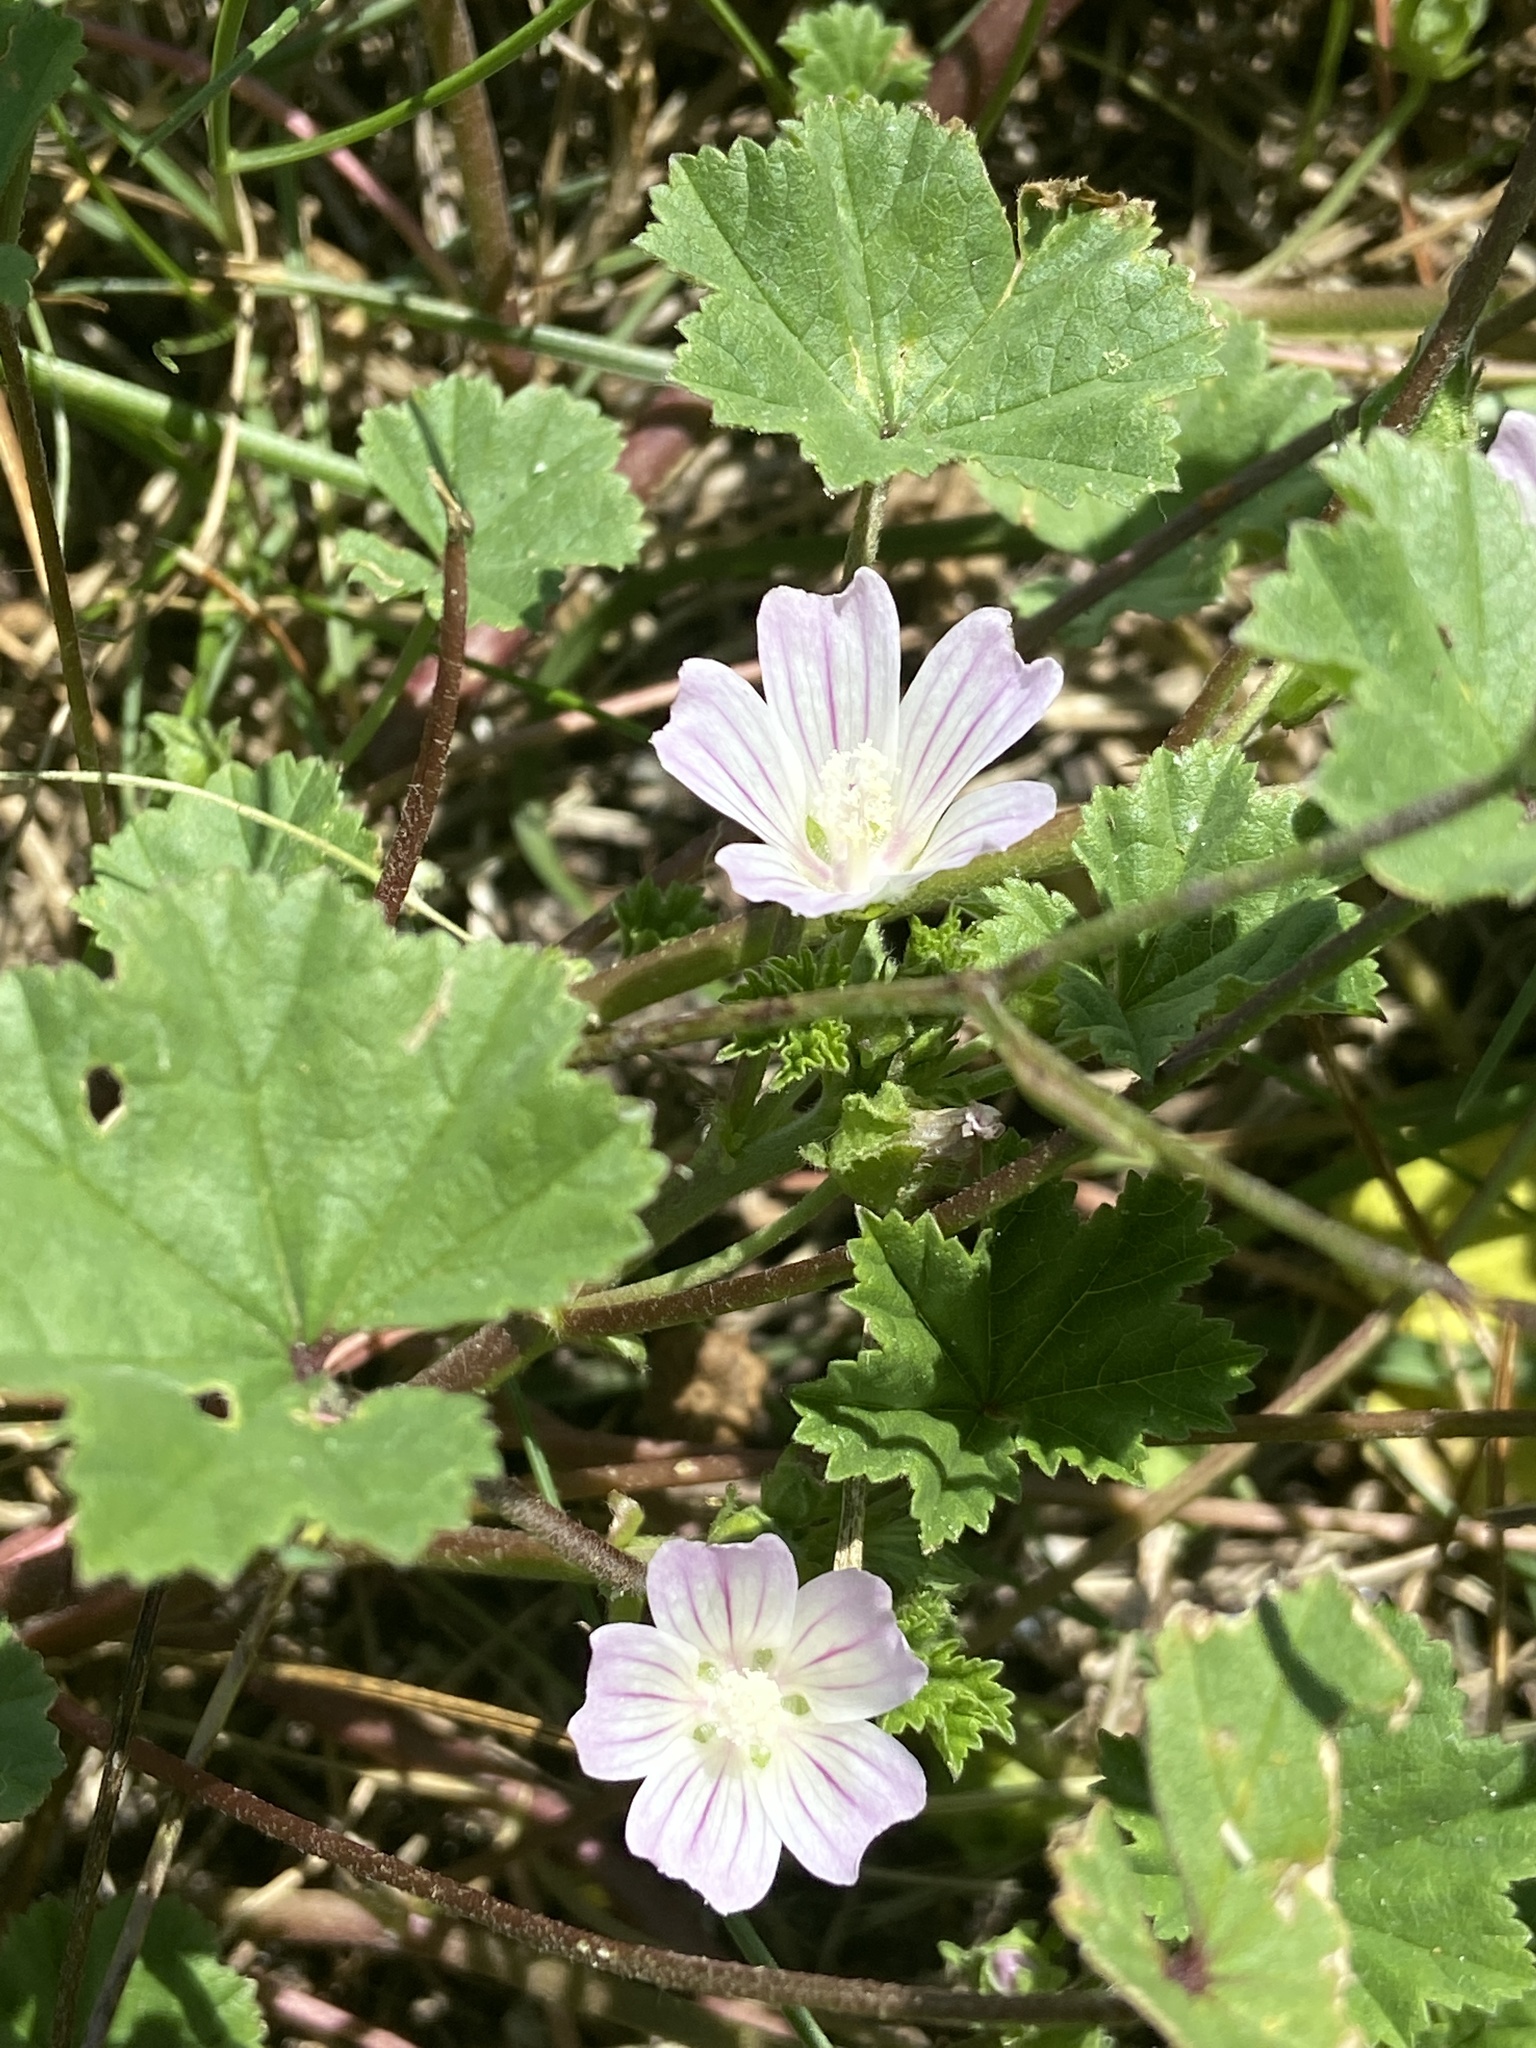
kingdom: Plantae
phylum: Tracheophyta
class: Magnoliopsida
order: Malvales
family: Malvaceae
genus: Malva
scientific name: Malva neglecta
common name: Common mallow
